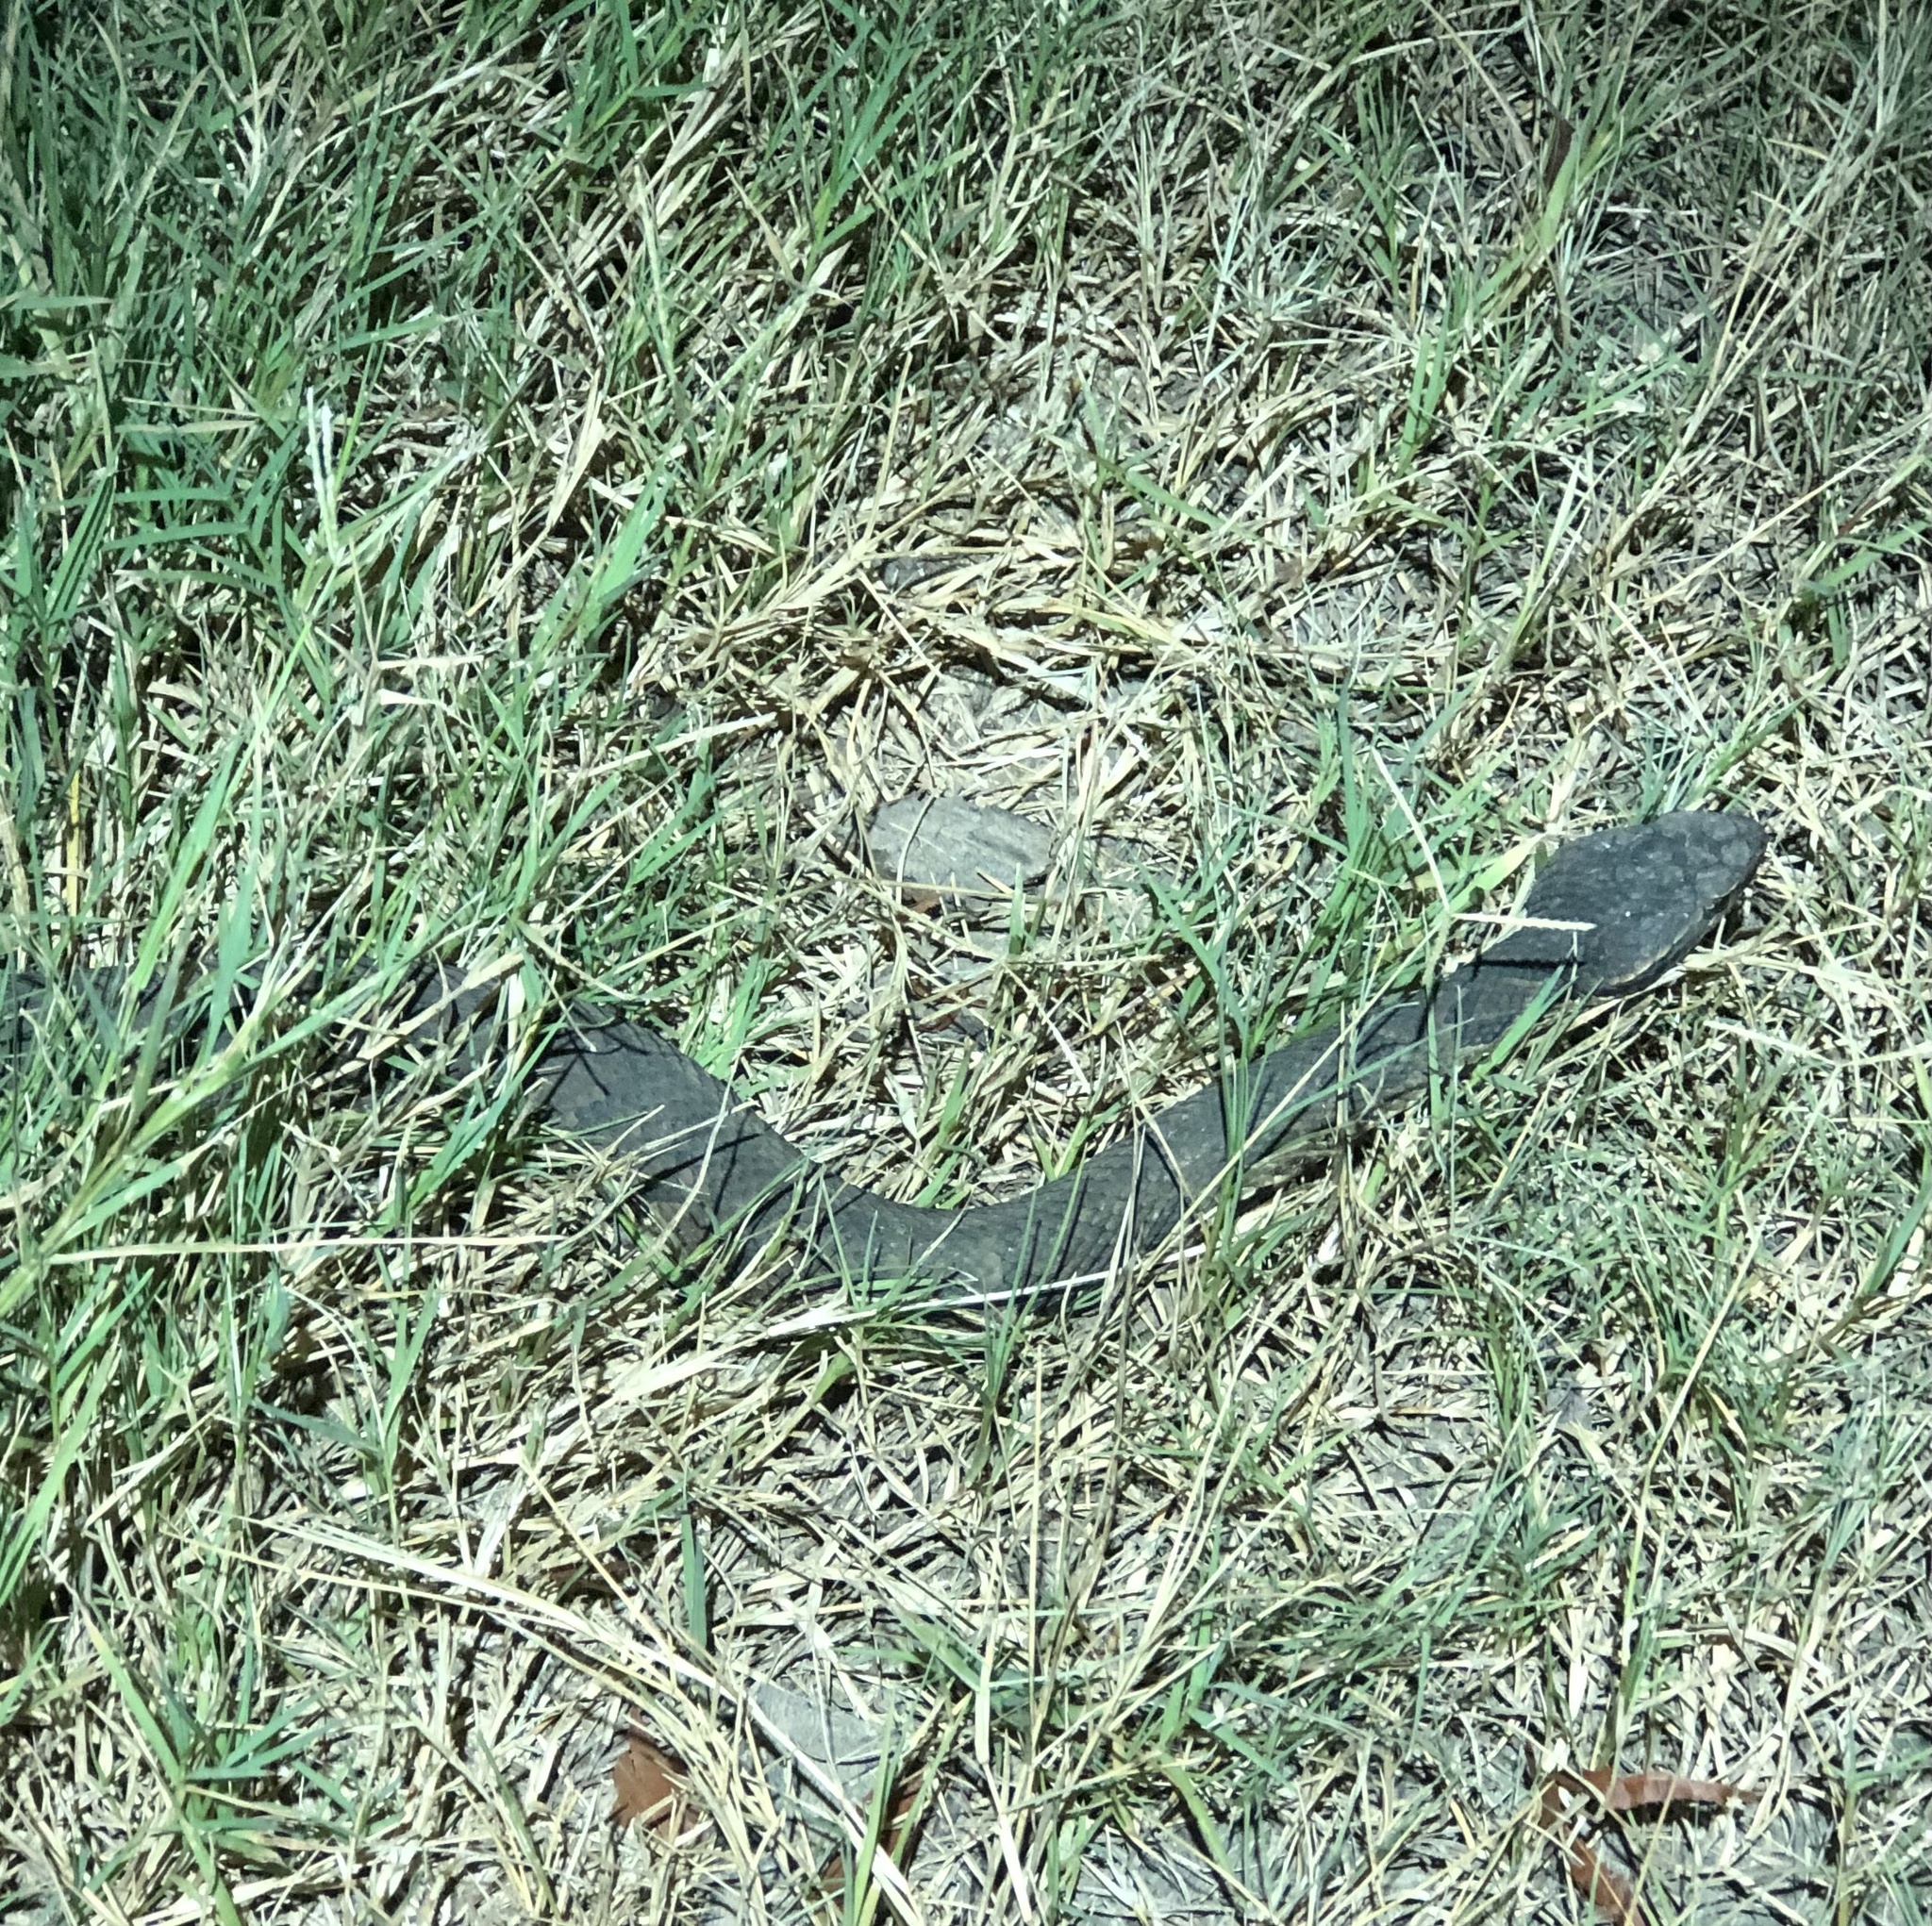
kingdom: Animalia
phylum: Chordata
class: Squamata
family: Viperidae
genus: Agkistrodon
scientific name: Agkistrodon piscivorus
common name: Cottonmouth
